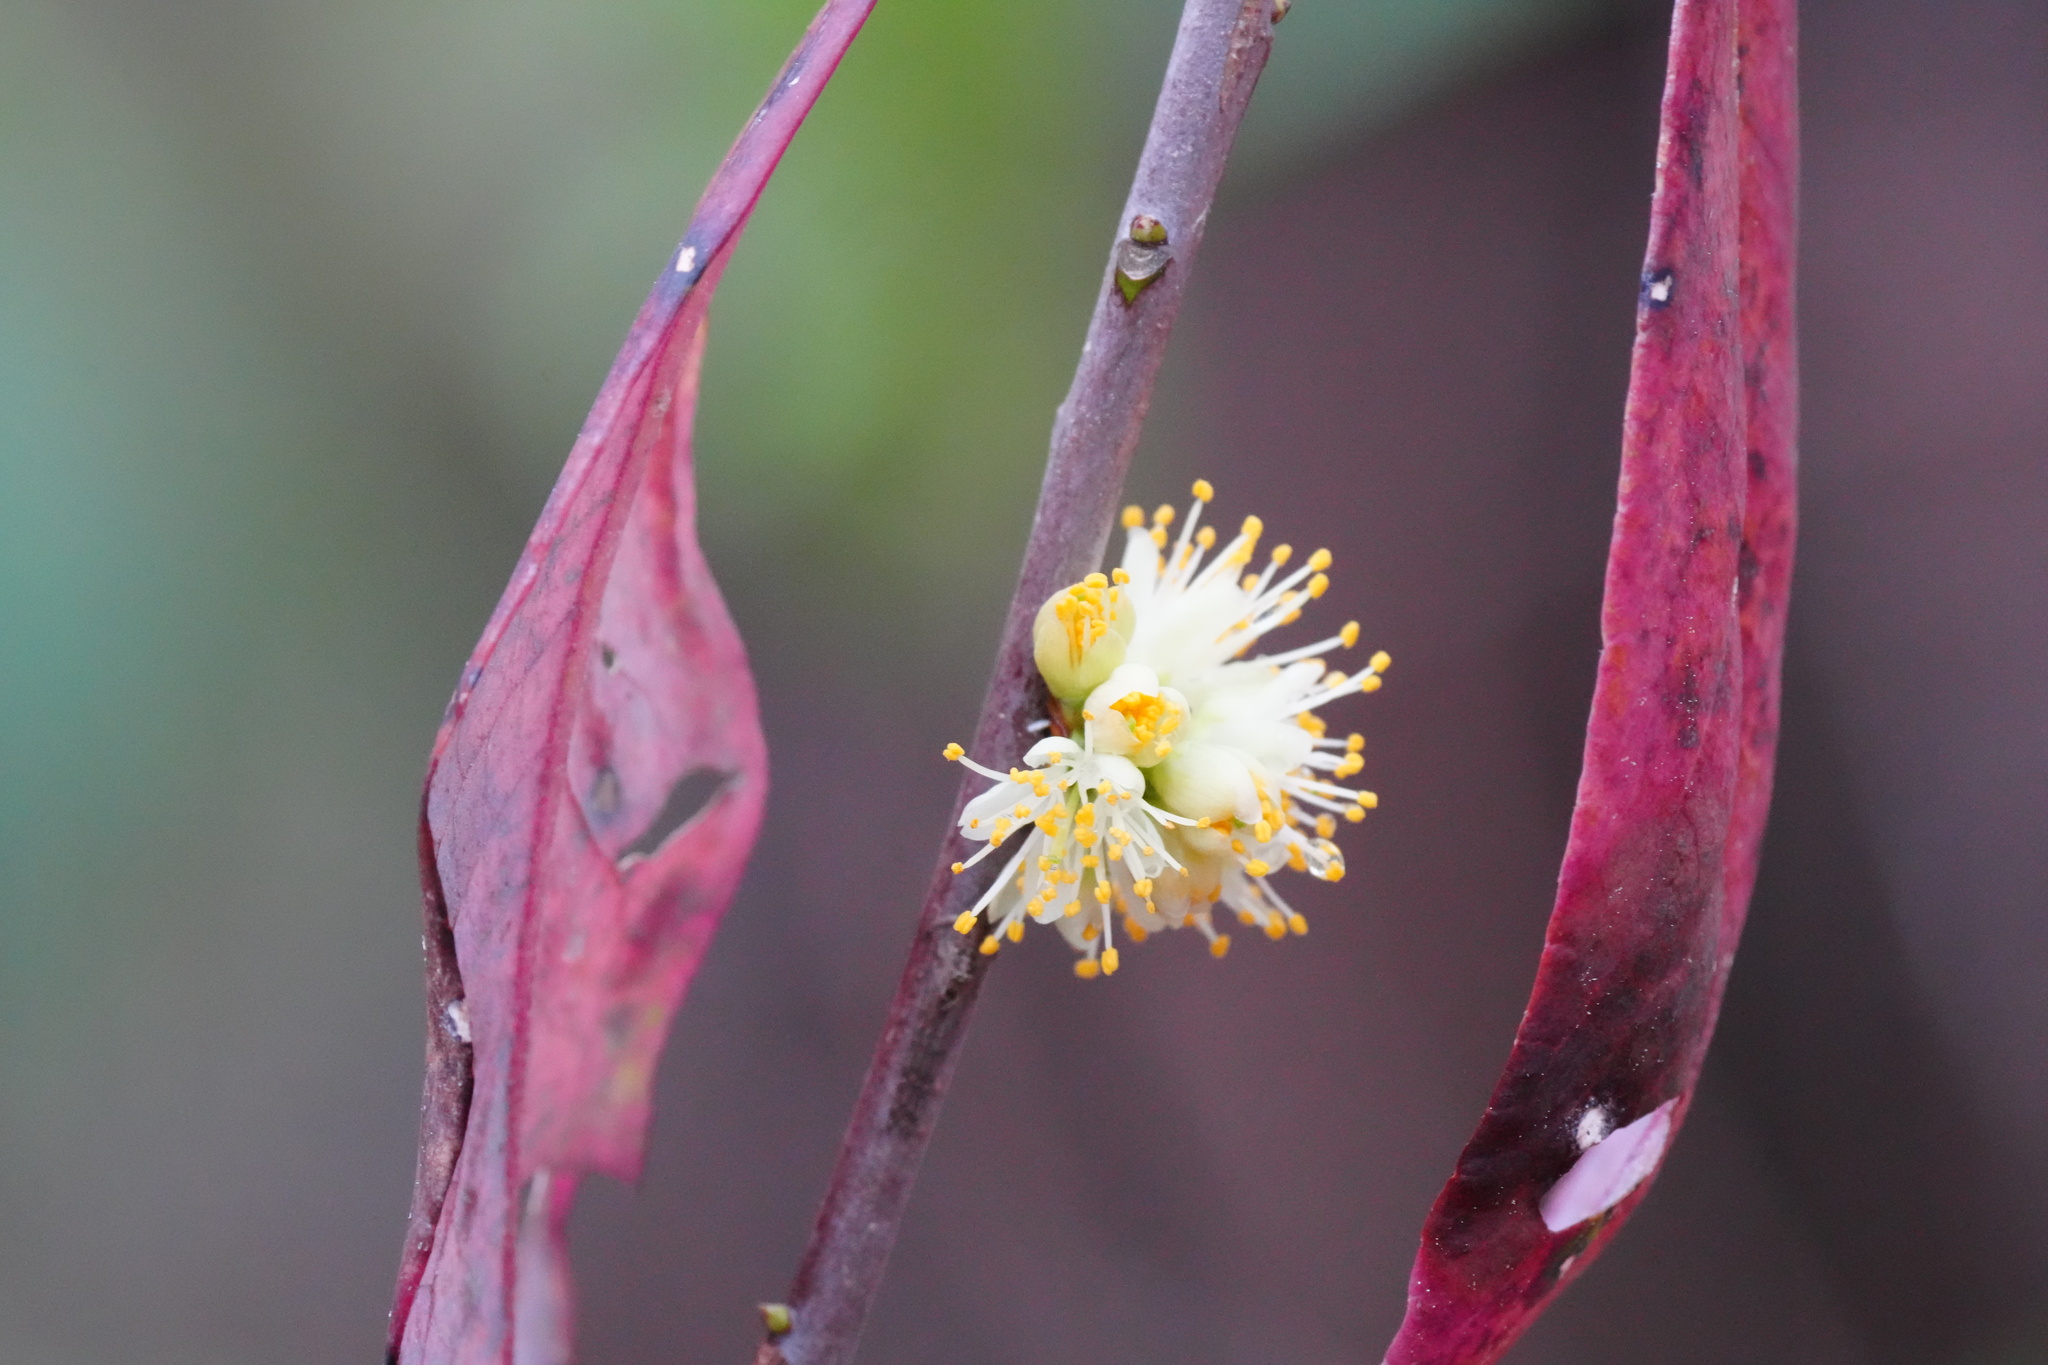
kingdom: Plantae
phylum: Tracheophyta
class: Magnoliopsida
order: Ericales
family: Symplocaceae
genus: Symplocos
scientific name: Symplocos tinctoria
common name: Horse-sugar
